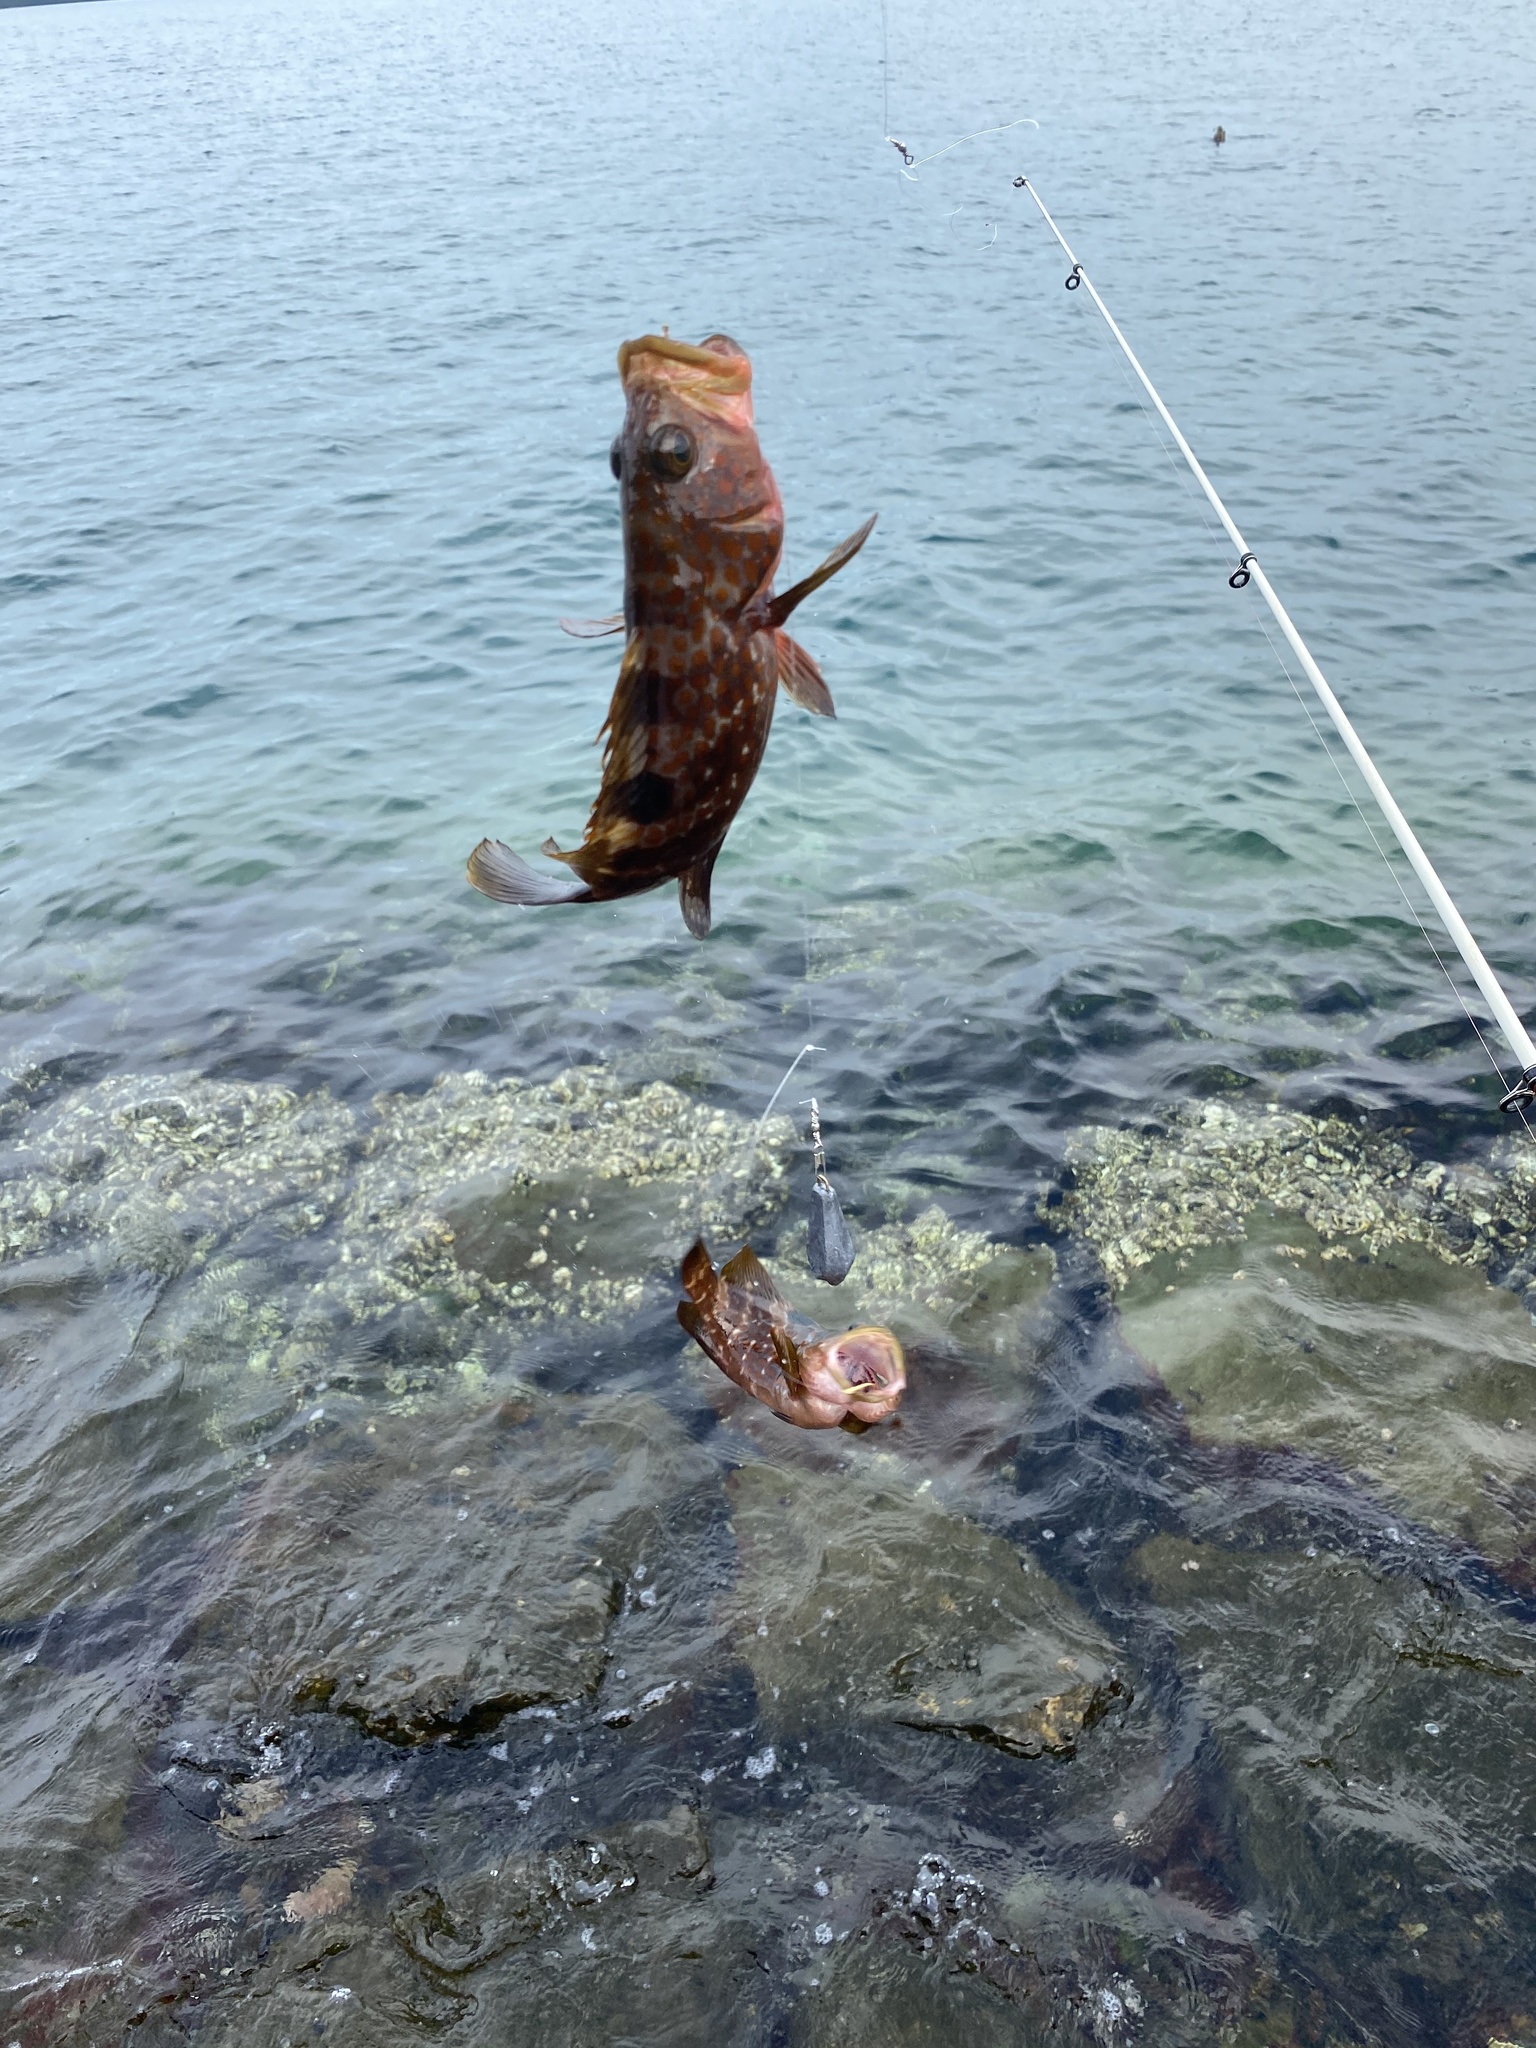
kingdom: Animalia
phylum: Chordata
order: Perciformes
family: Serranidae
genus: Epinephelus
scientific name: Epinephelus akaara
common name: Hong kong grouper
